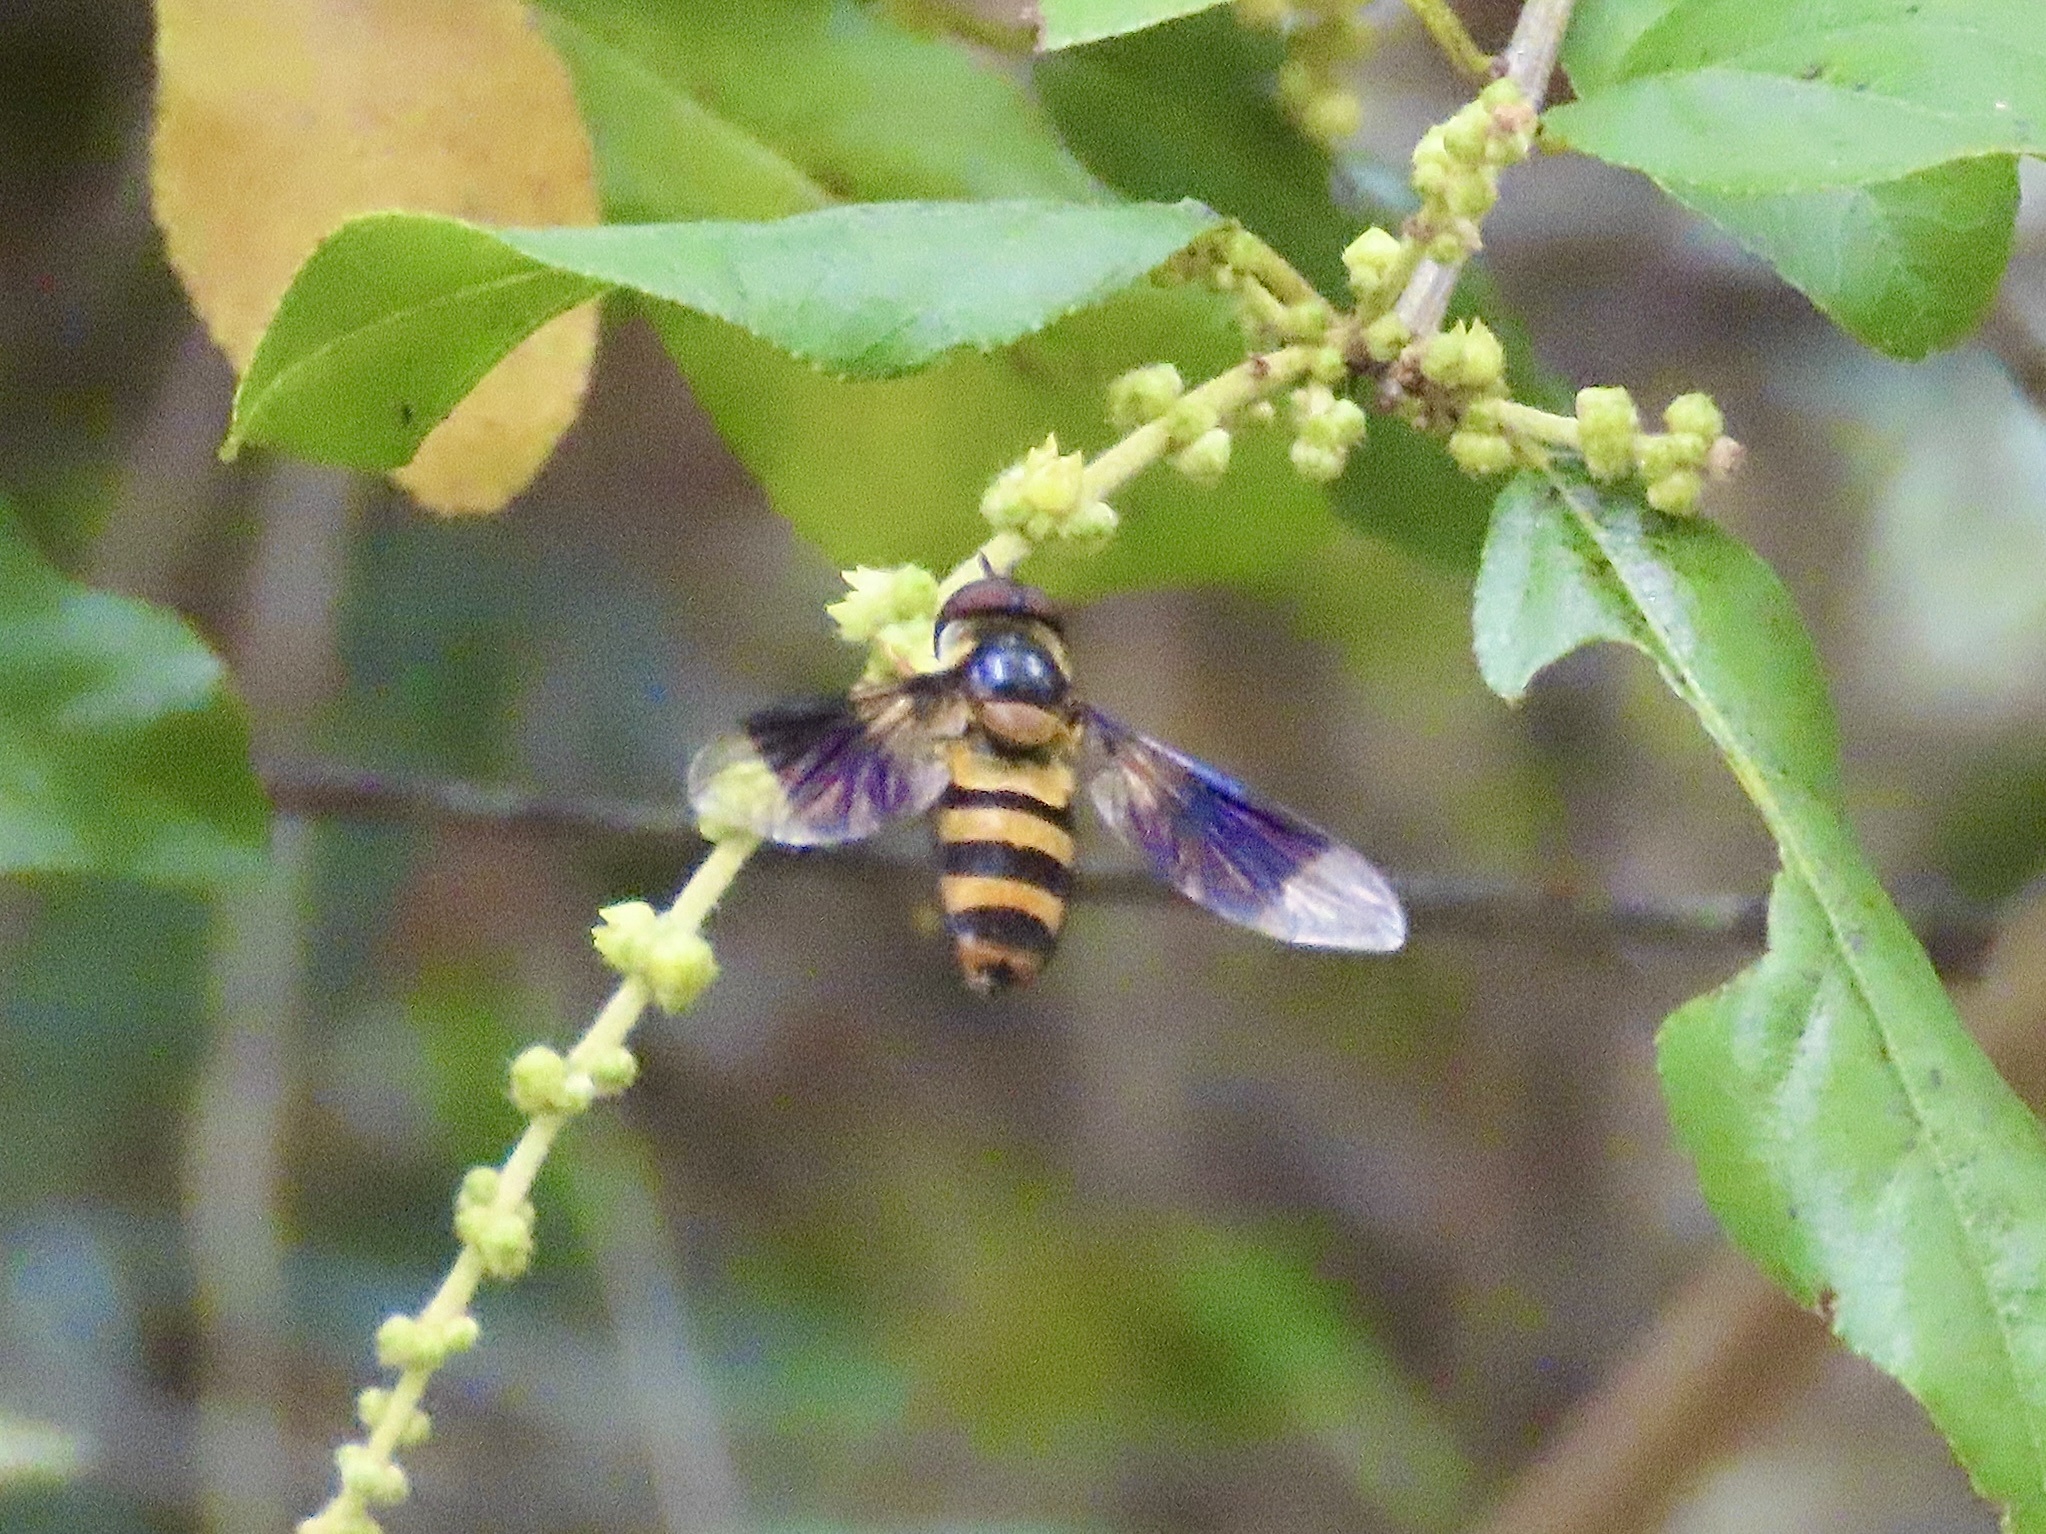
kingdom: Animalia
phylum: Arthropoda
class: Insecta
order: Diptera
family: Syrphidae
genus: Dideopsis
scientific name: Dideopsis aegrota
